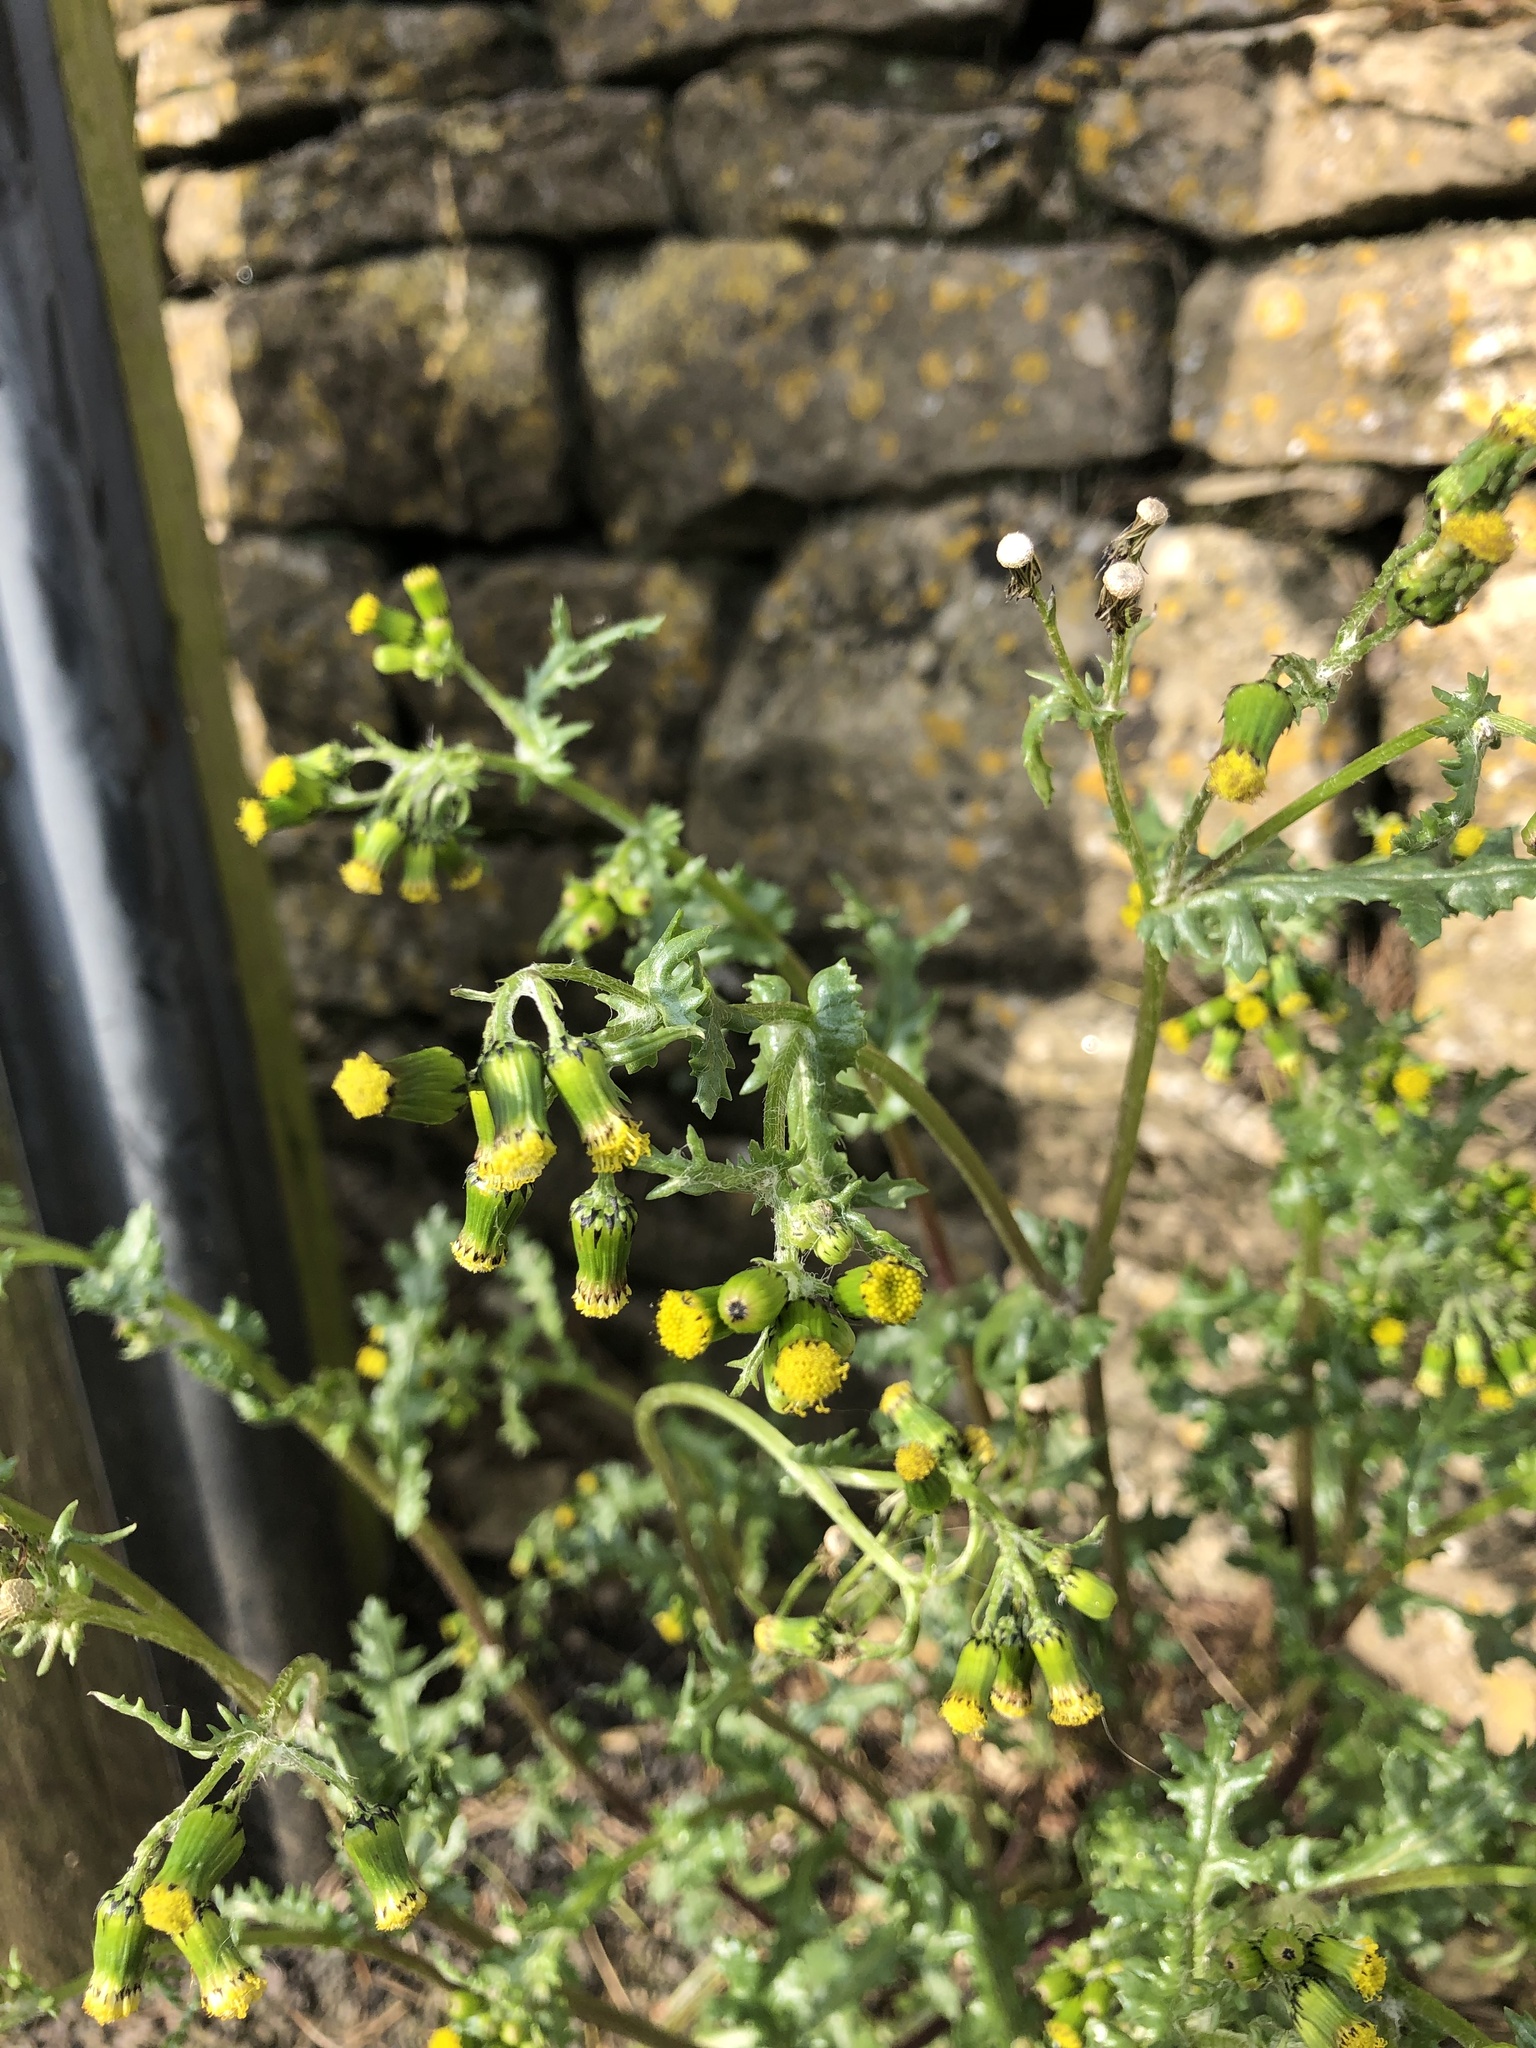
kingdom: Plantae
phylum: Tracheophyta
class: Magnoliopsida
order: Asterales
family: Asteraceae
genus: Senecio
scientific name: Senecio vulgaris
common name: Old-man-in-the-spring
